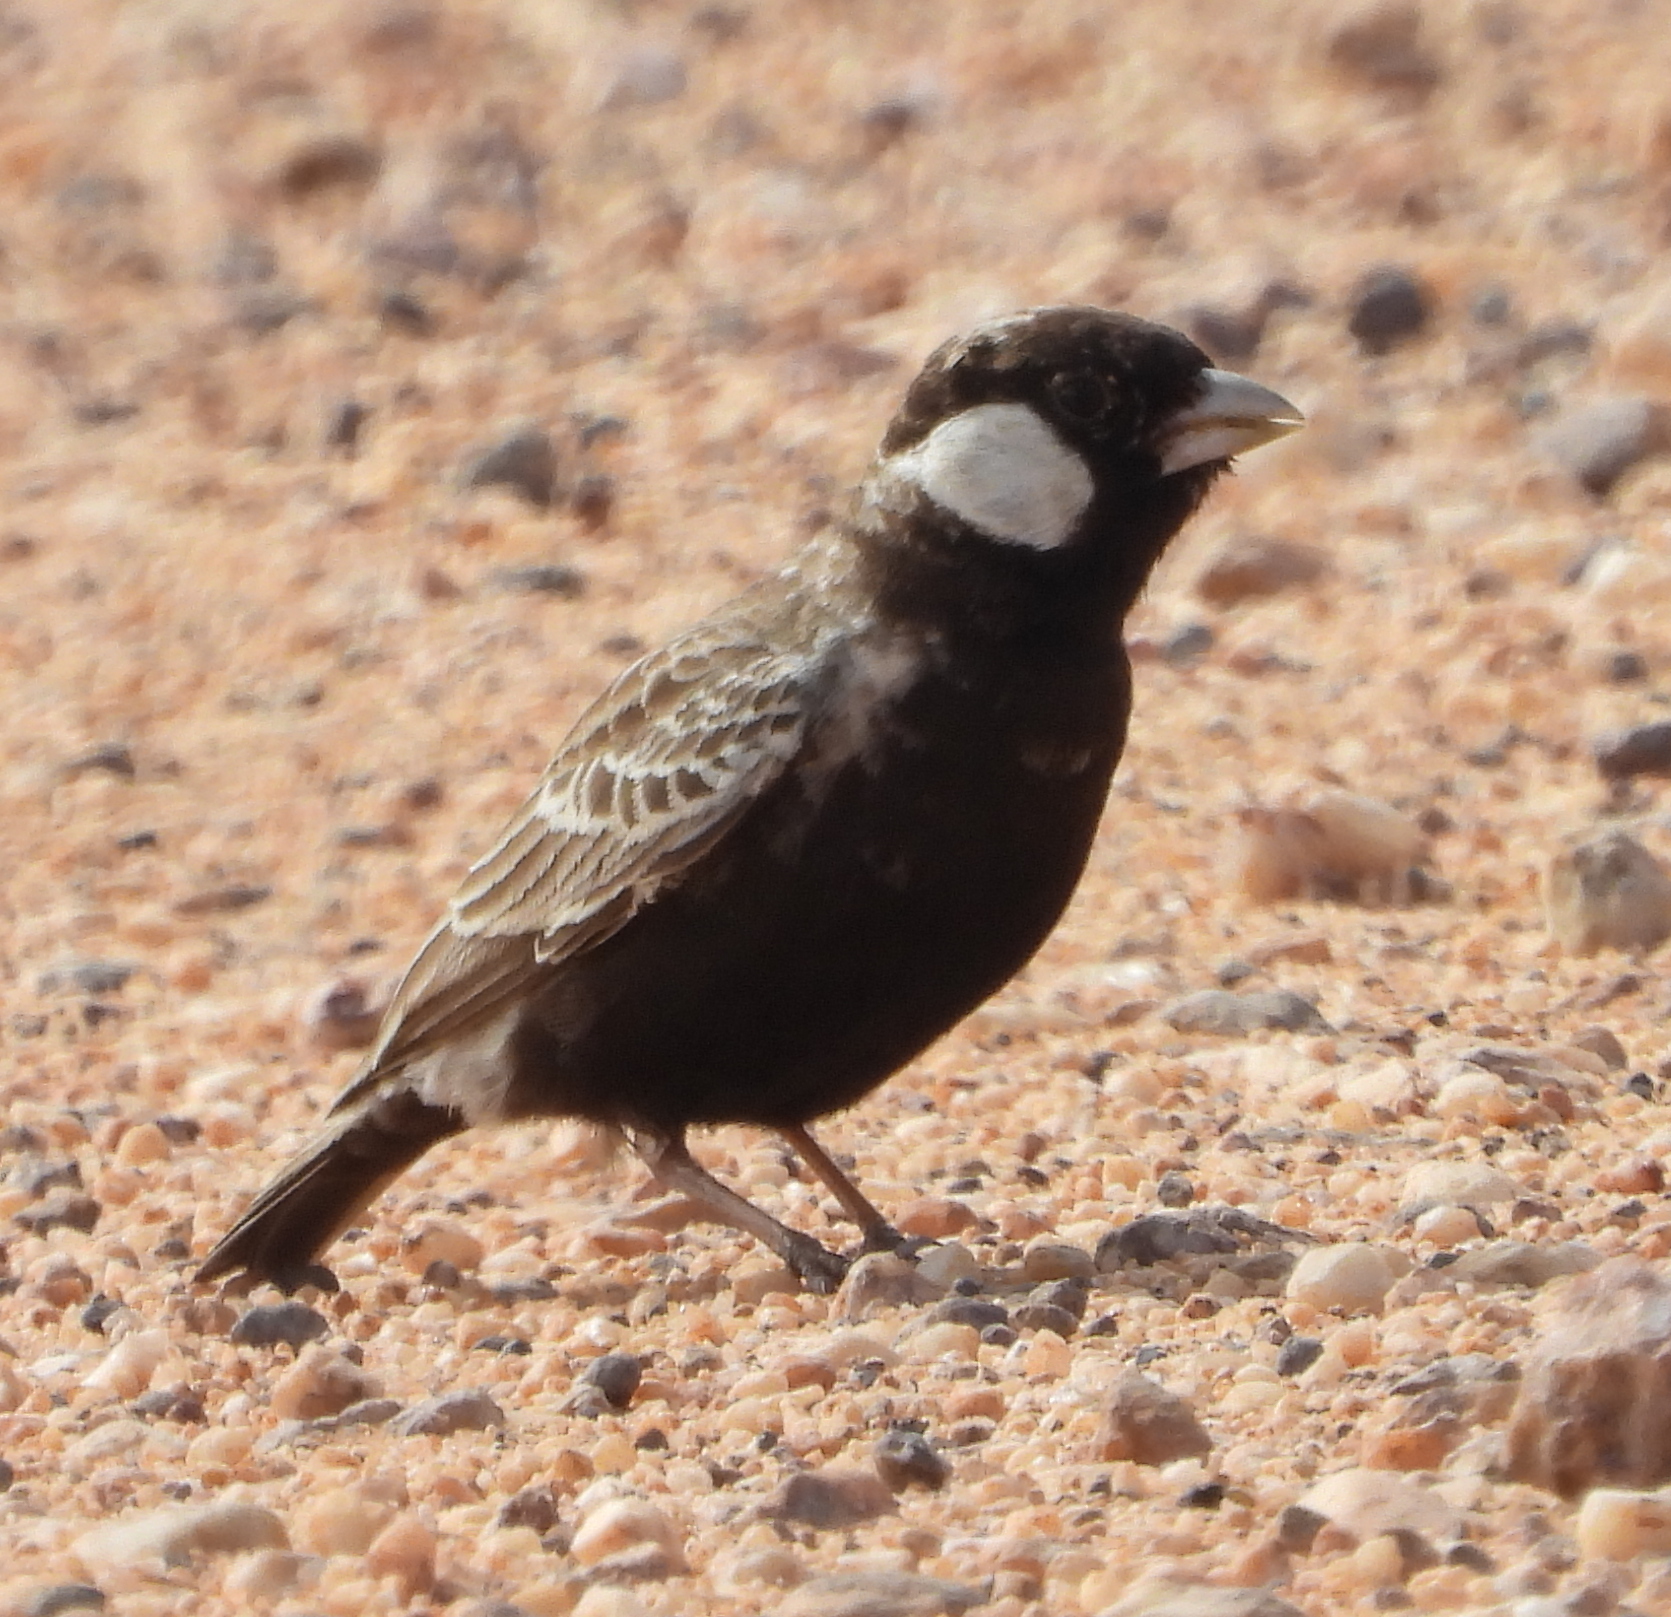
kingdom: Animalia
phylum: Chordata
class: Aves
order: Passeriformes
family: Alaudidae
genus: Eremopterix
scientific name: Eremopterix verticalis
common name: Grey-backed sparrow-lark
